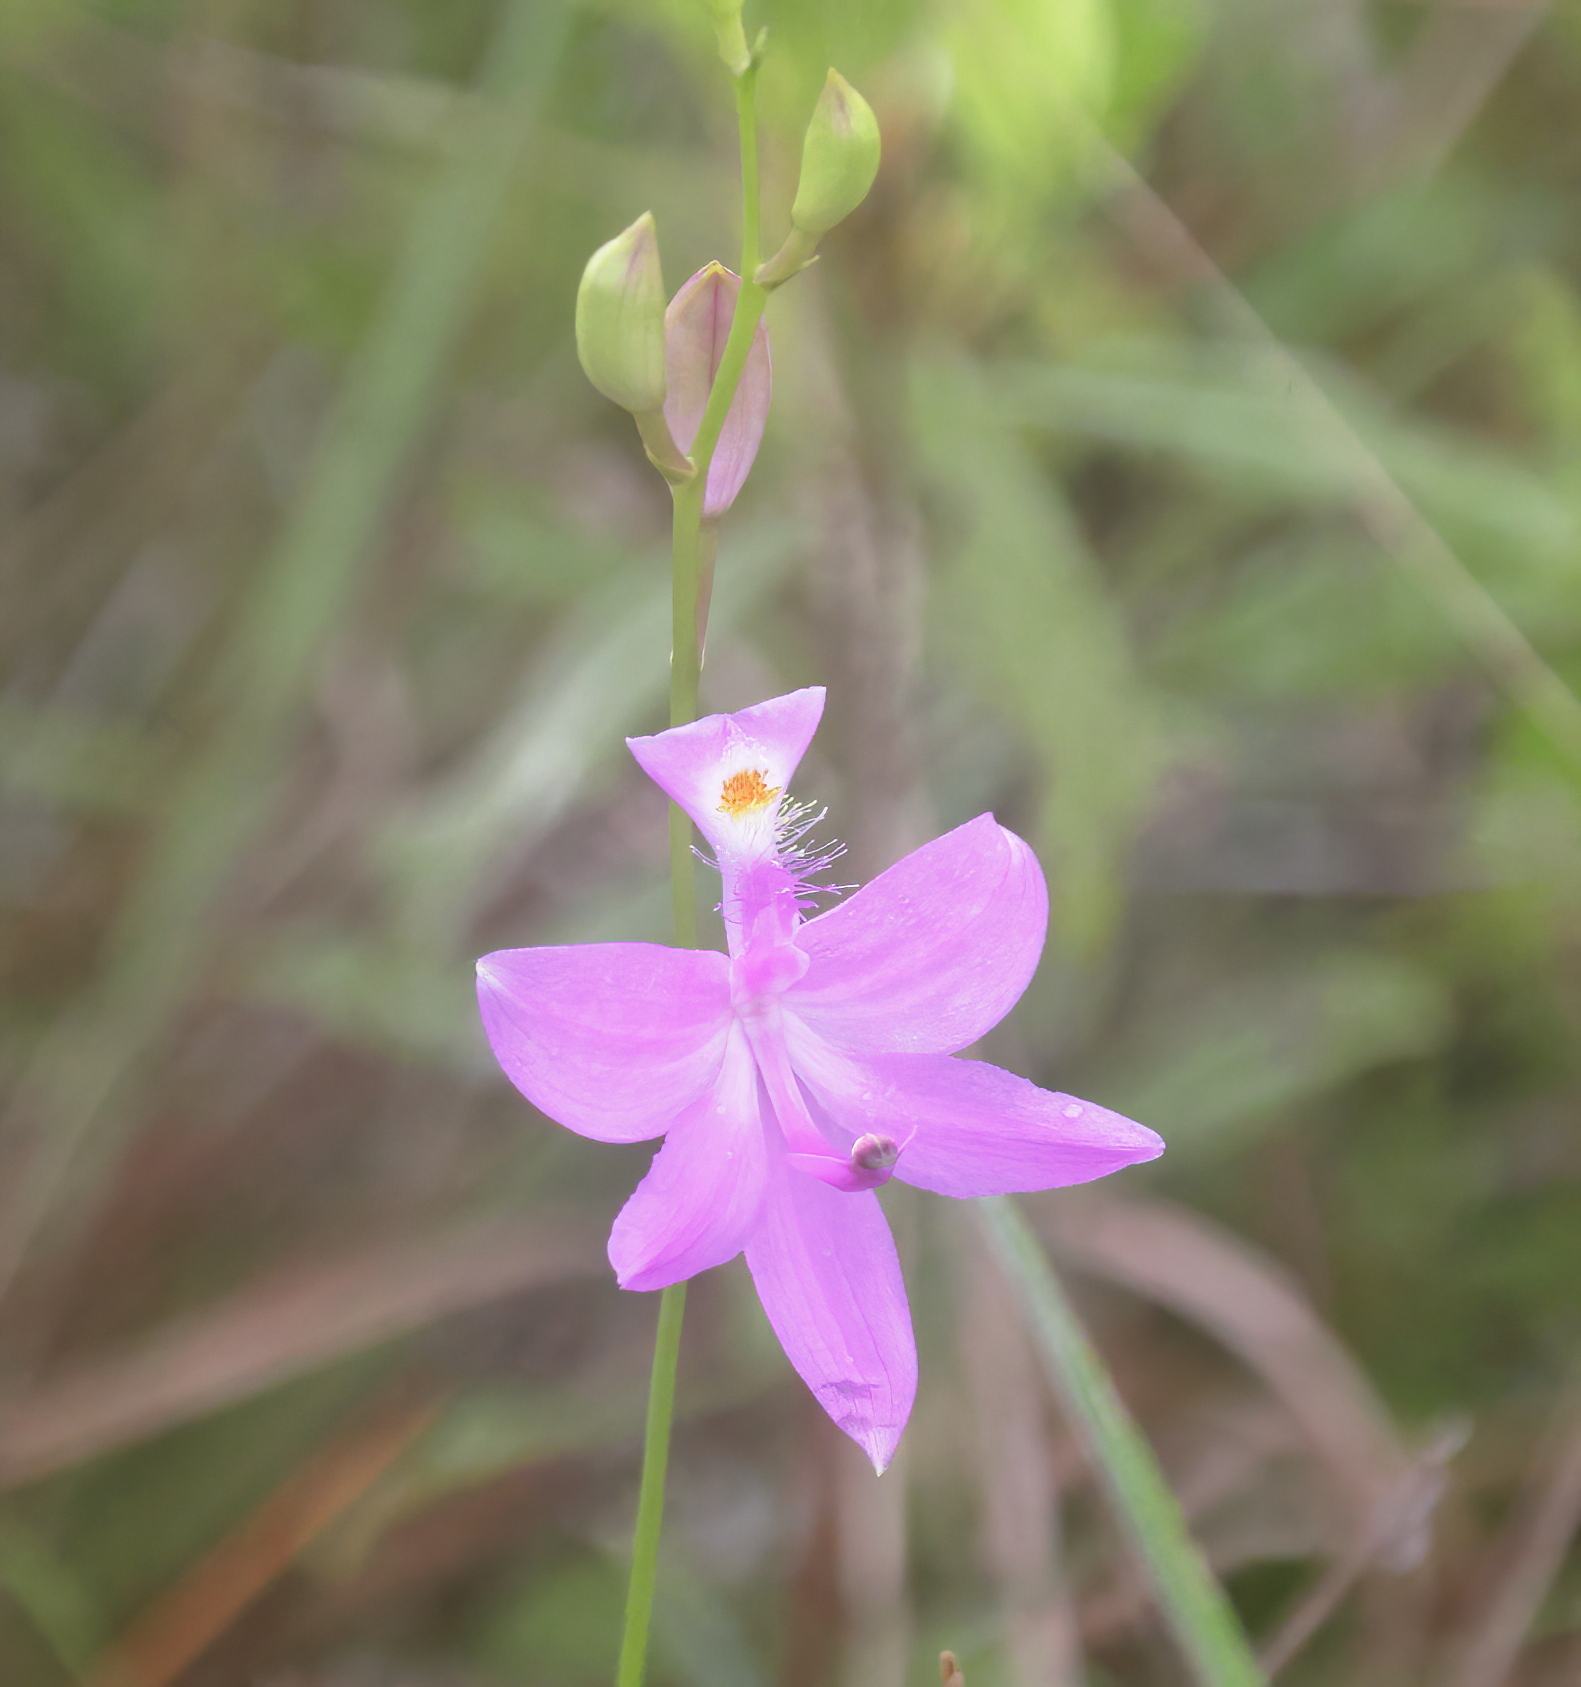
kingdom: Plantae
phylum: Tracheophyta
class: Liliopsida
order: Asparagales
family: Orchidaceae
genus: Calopogon
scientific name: Calopogon tuberosus
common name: Grass-pink
